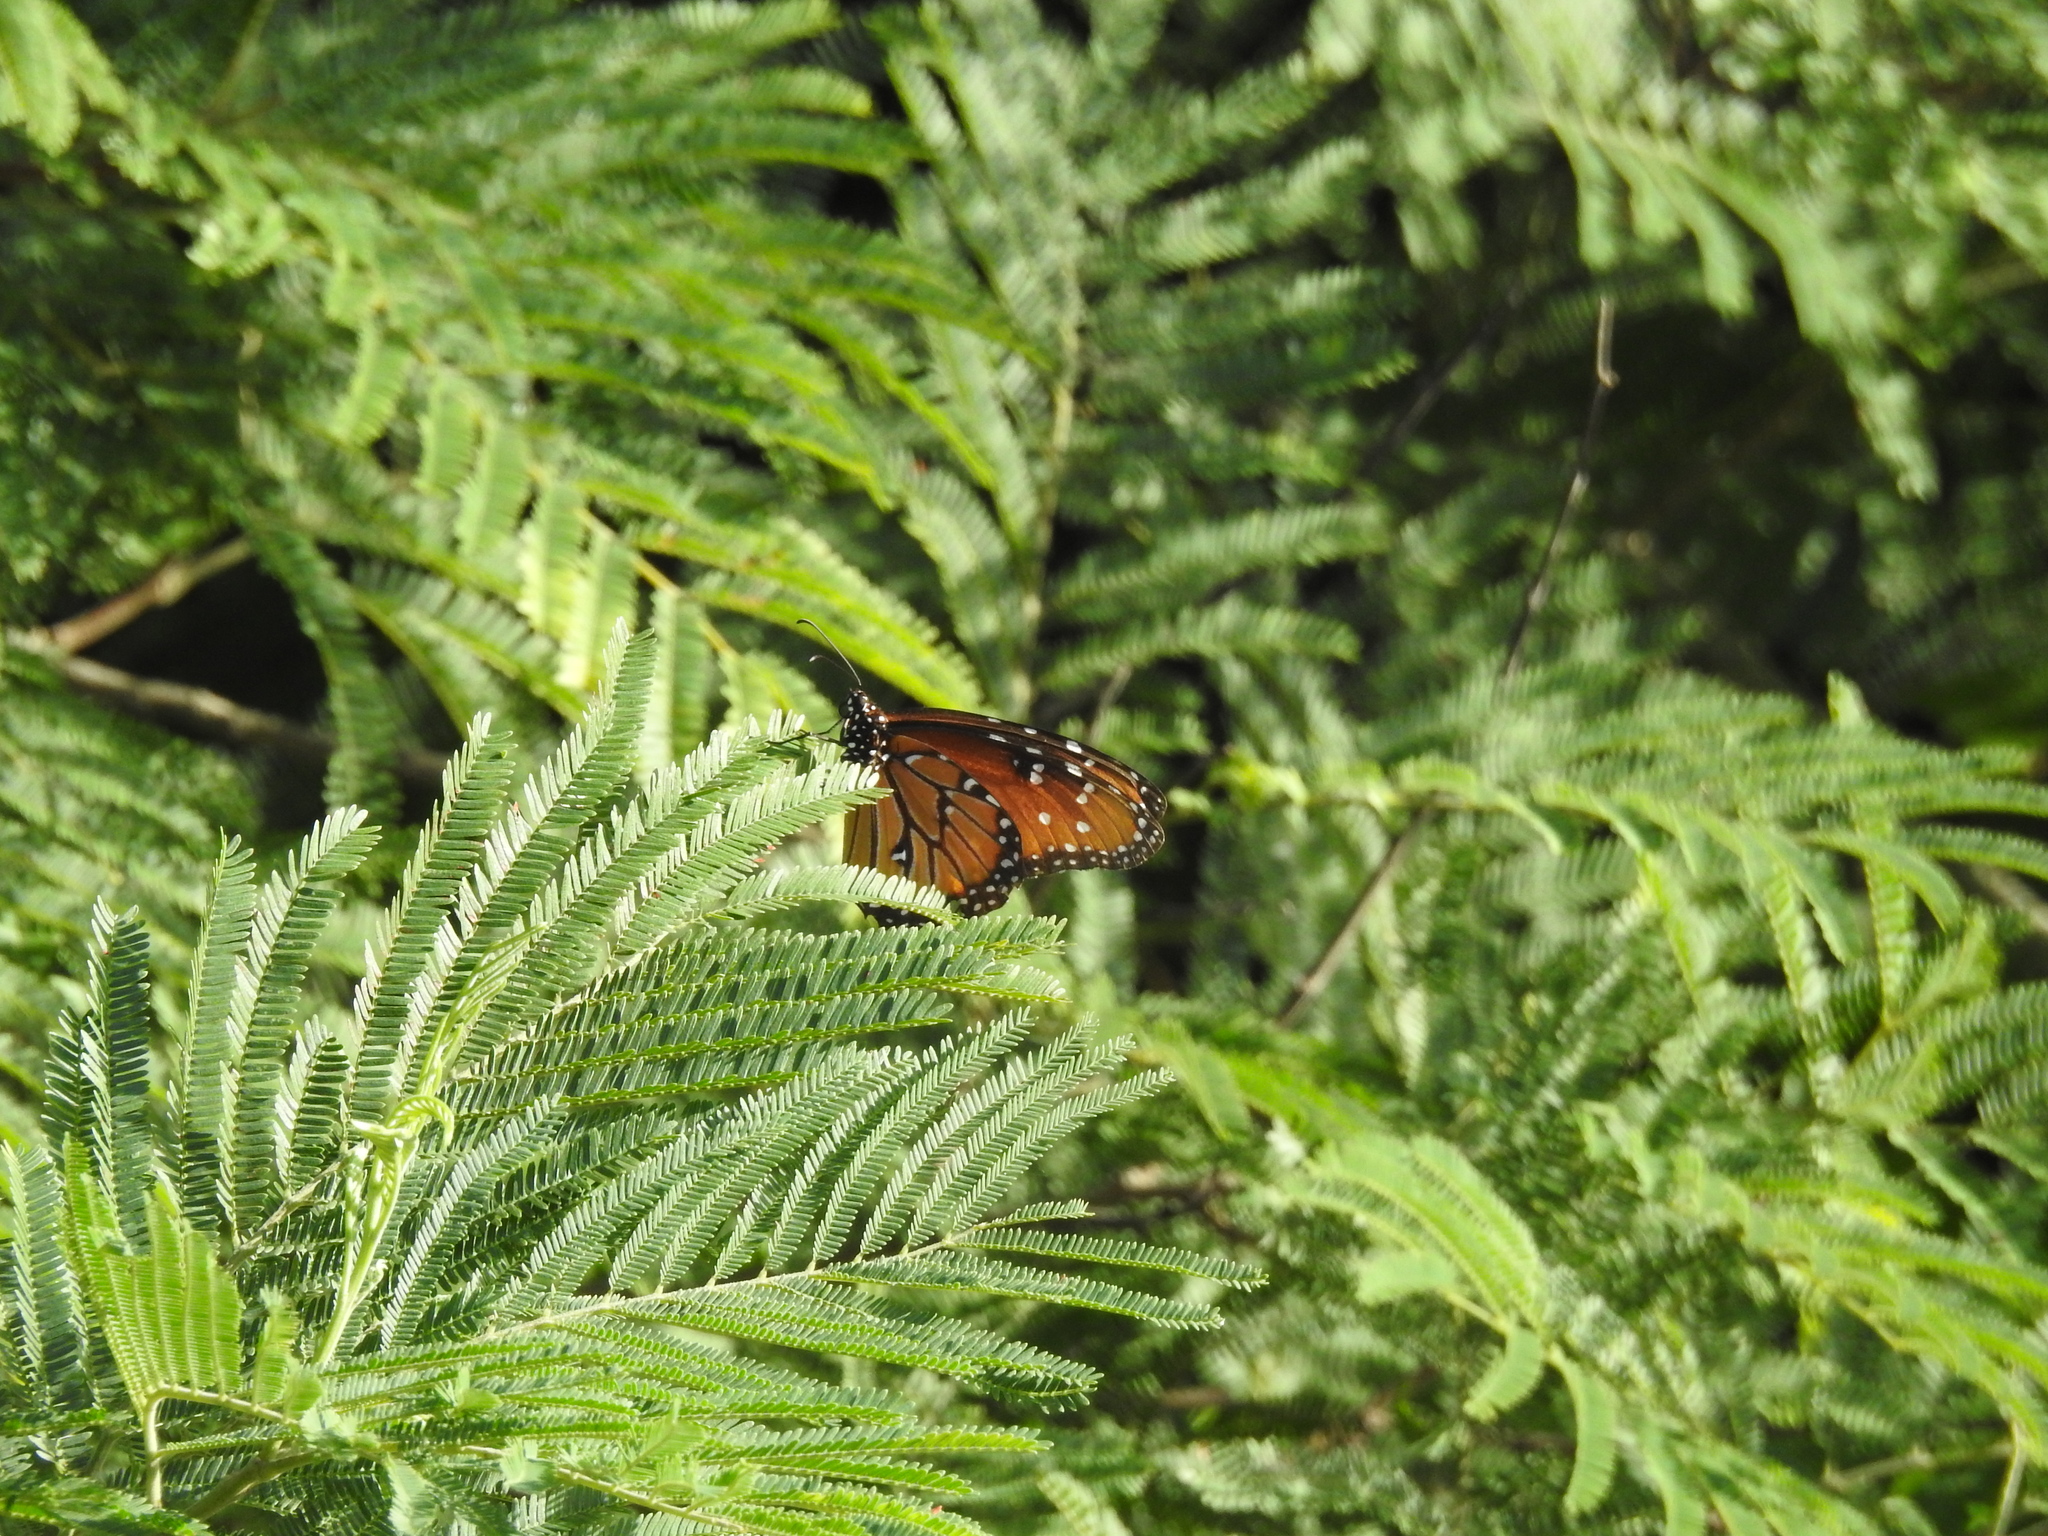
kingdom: Animalia
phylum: Arthropoda
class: Insecta
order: Lepidoptera
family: Nymphalidae
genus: Danaus
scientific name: Danaus gilippus
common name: Queen
